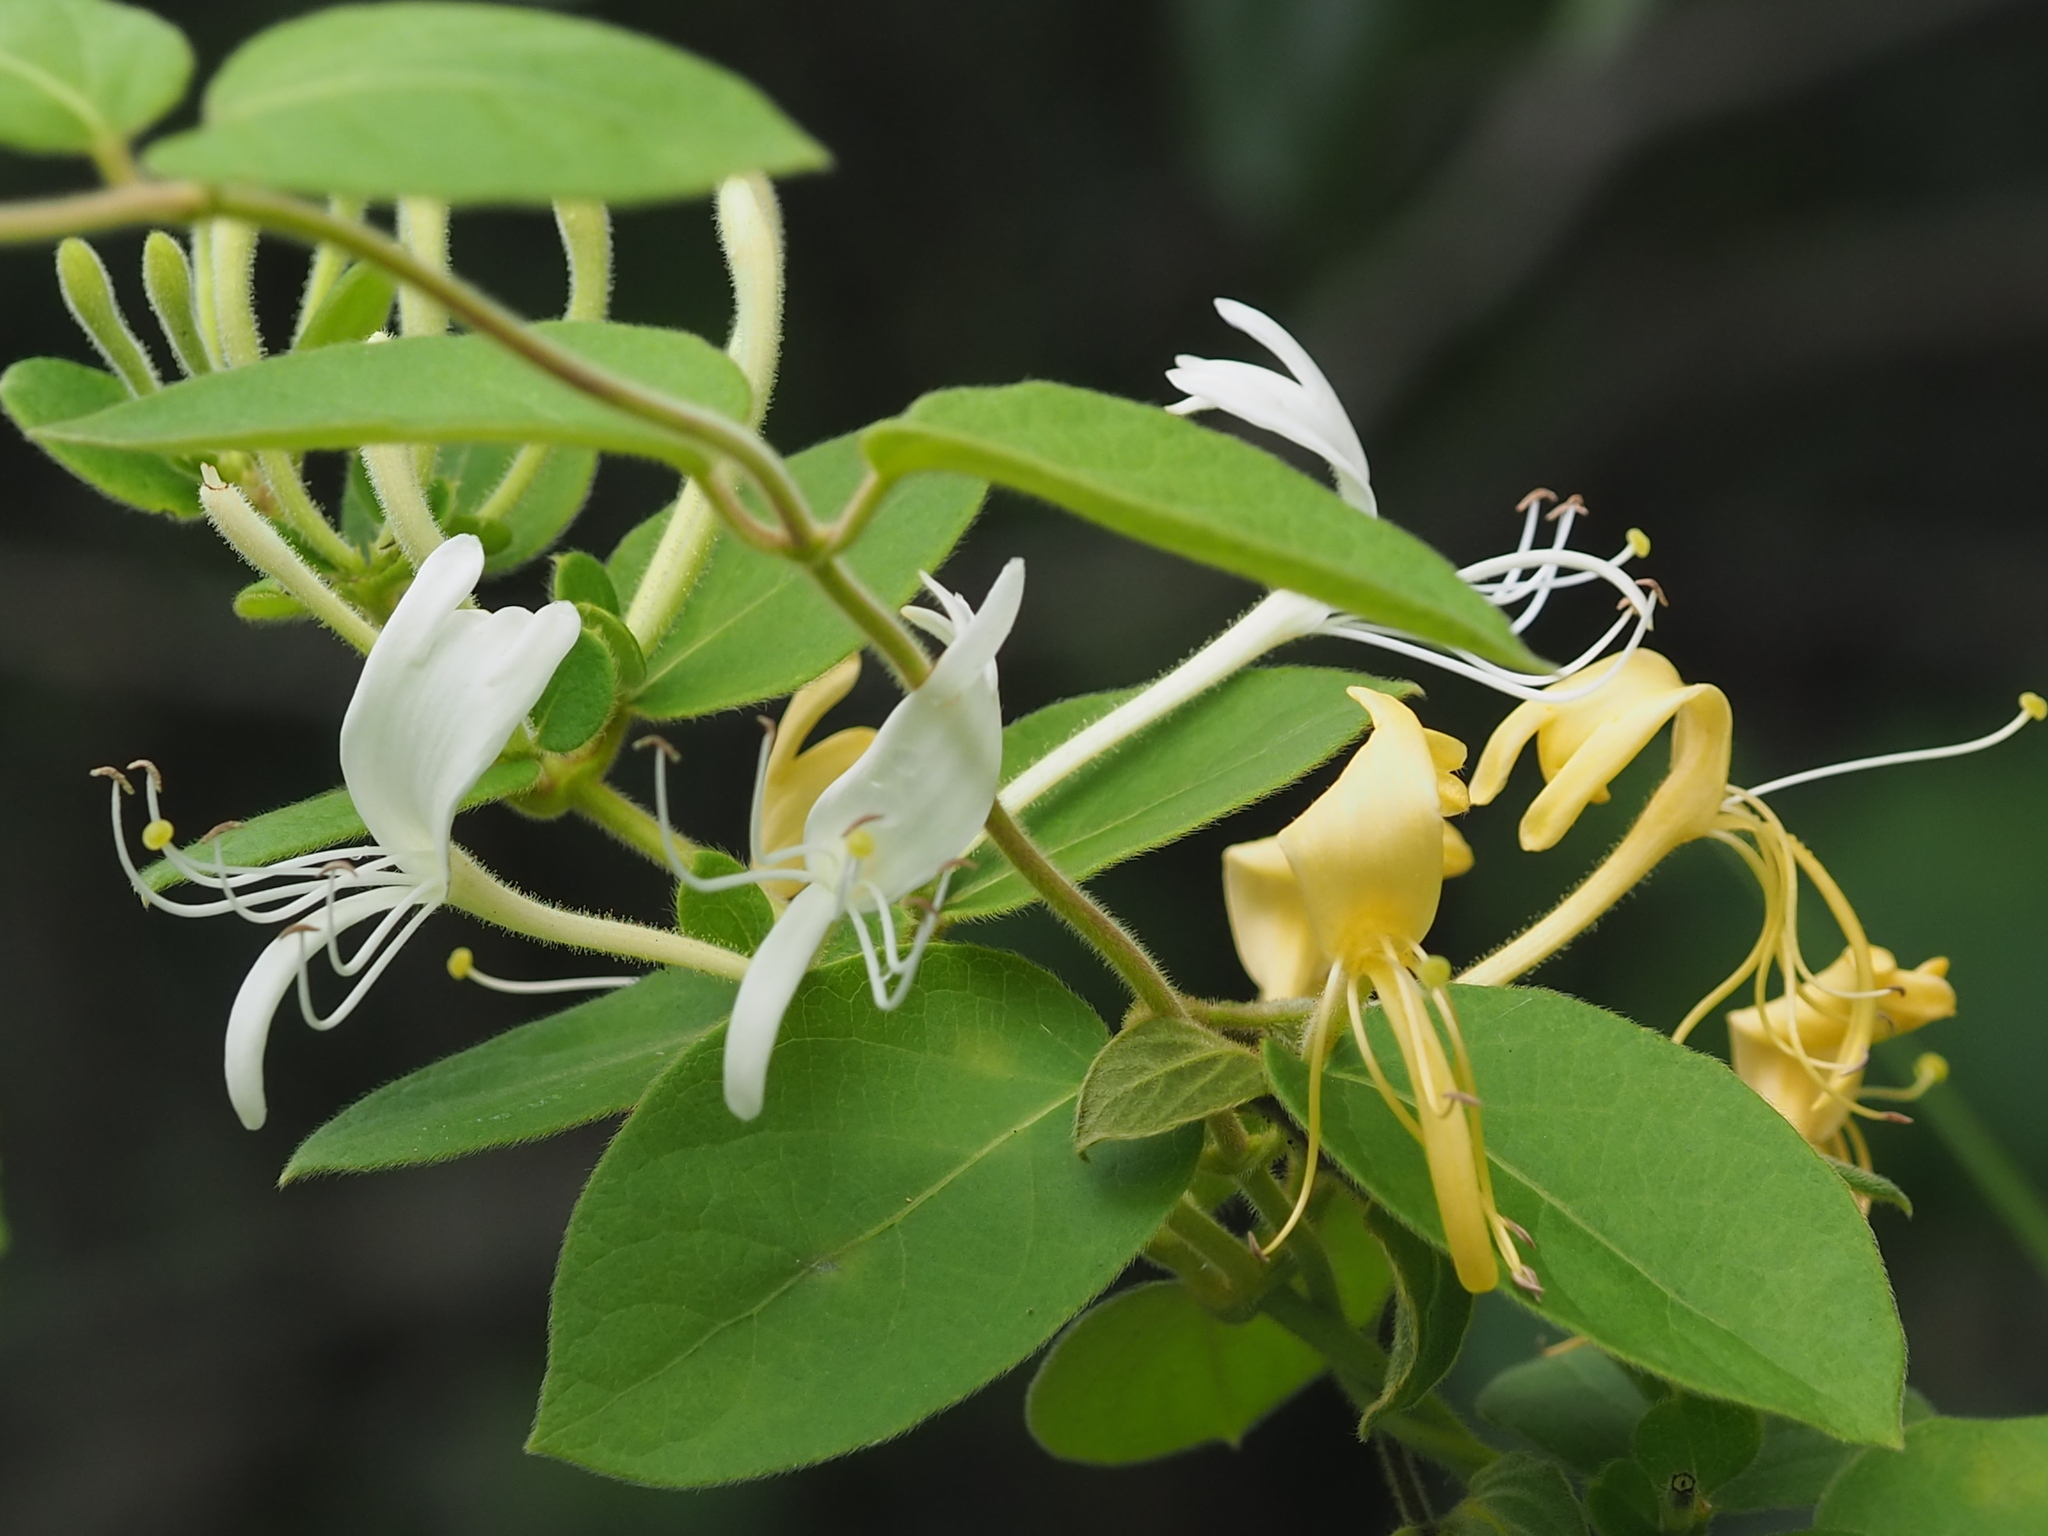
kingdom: Plantae
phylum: Tracheophyta
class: Magnoliopsida
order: Dipsacales
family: Caprifoliaceae
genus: Lonicera
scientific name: Lonicera japonica
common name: Japanese honeysuckle
